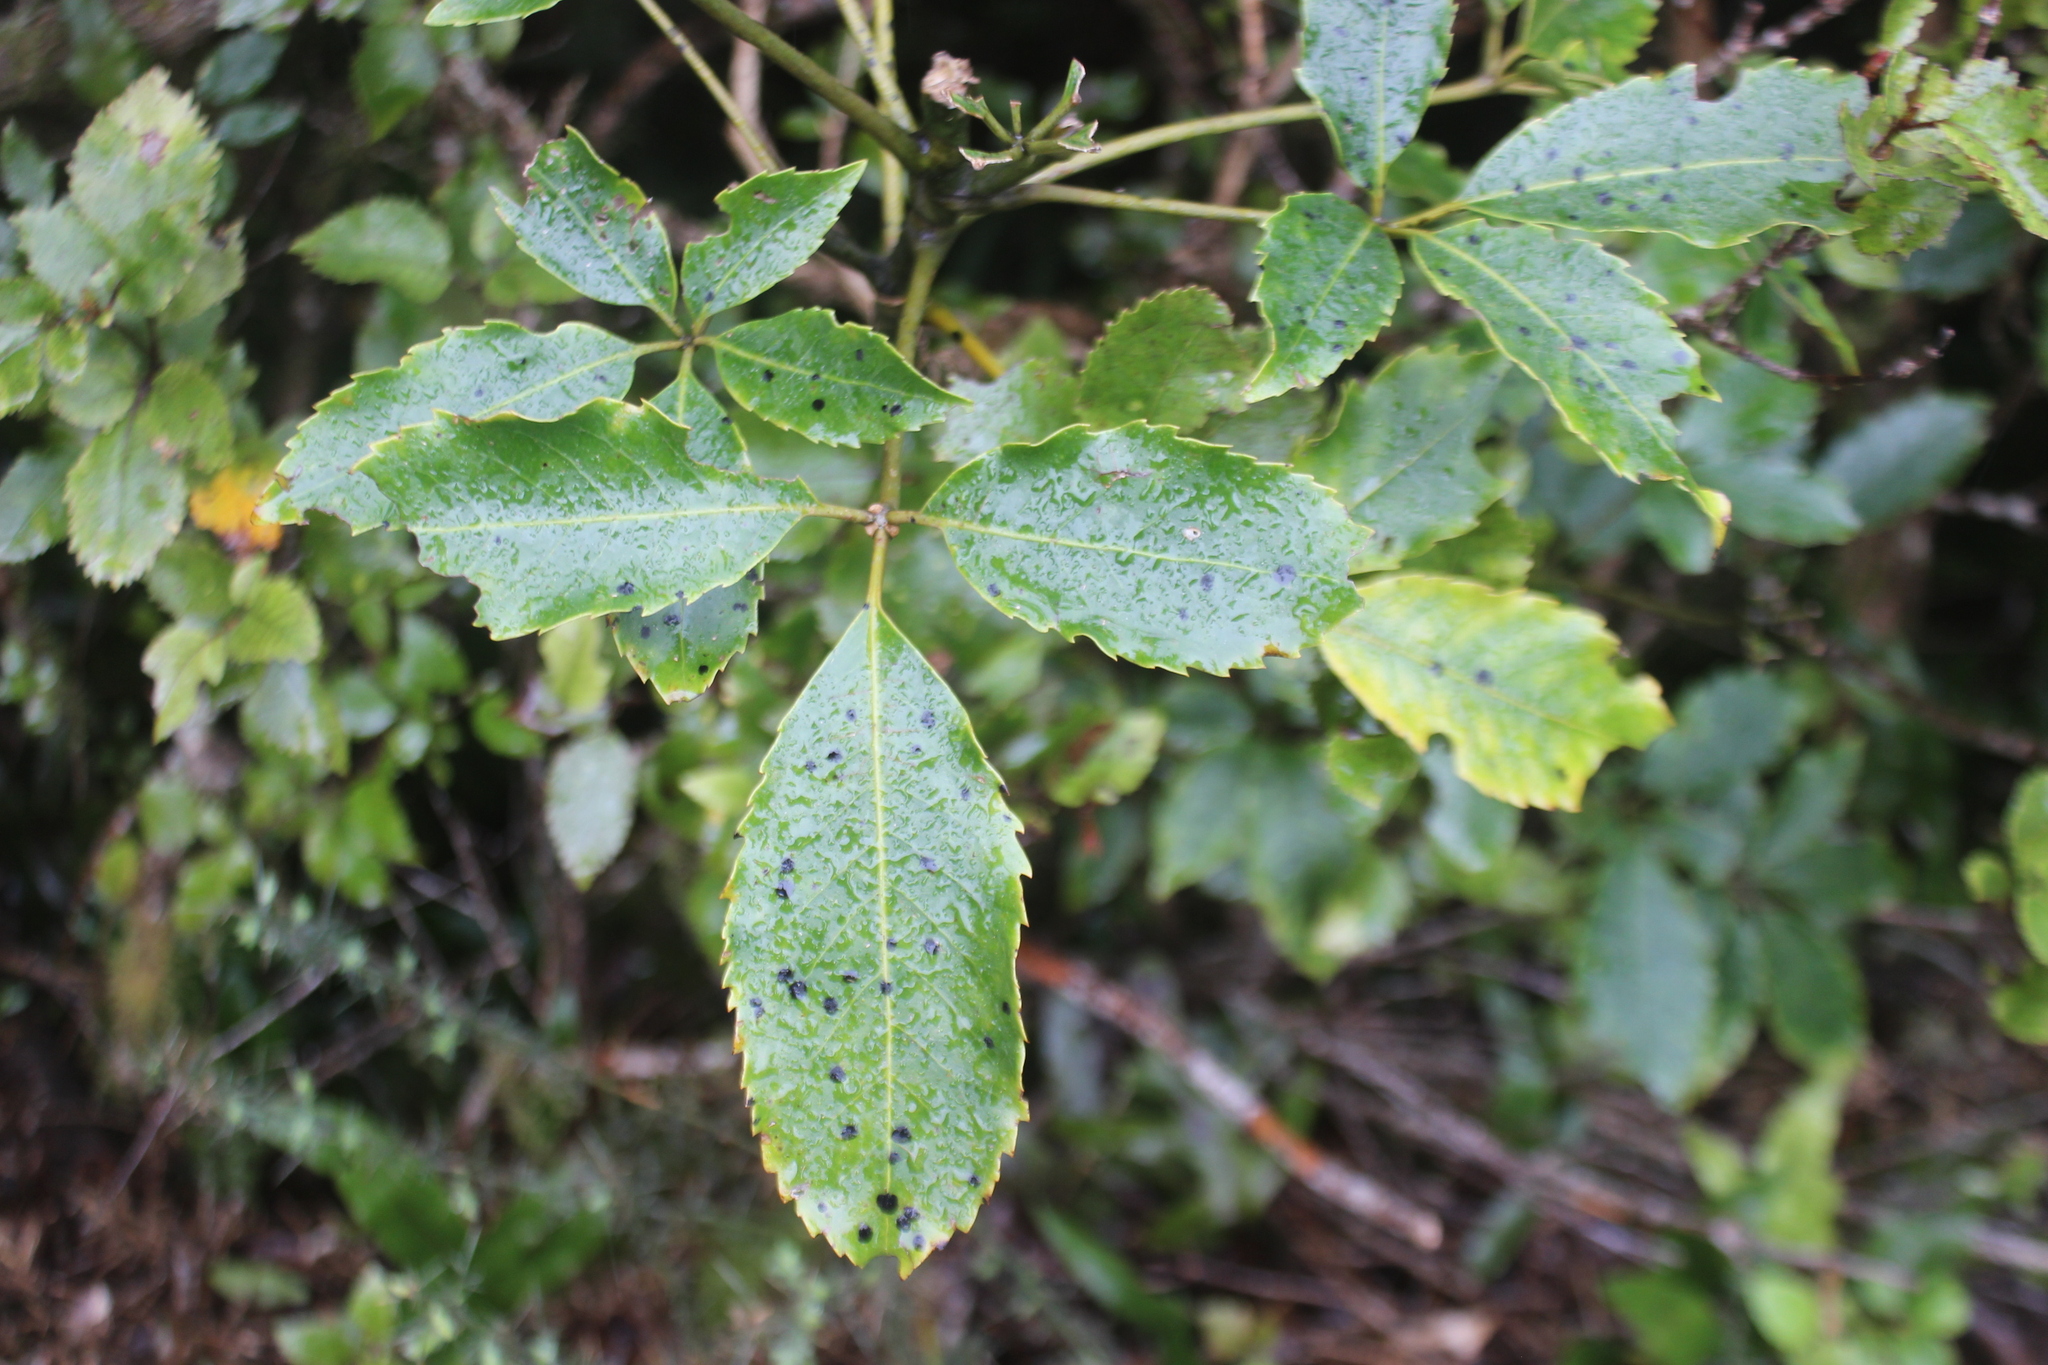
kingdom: Plantae
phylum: Tracheophyta
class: Magnoliopsida
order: Apiales
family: Araliaceae
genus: Neopanax
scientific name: Neopanax colensoi
